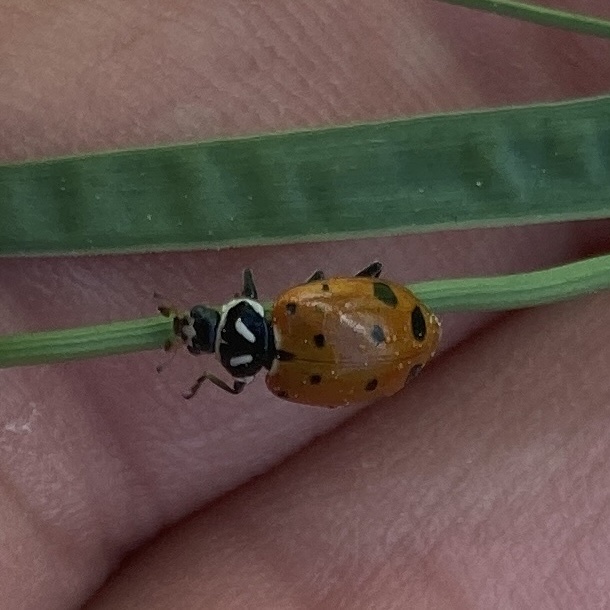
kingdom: Animalia
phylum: Arthropoda
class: Insecta
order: Coleoptera
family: Coccinellidae
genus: Hippodamia
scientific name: Hippodamia convergens
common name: Convergent lady beetle
